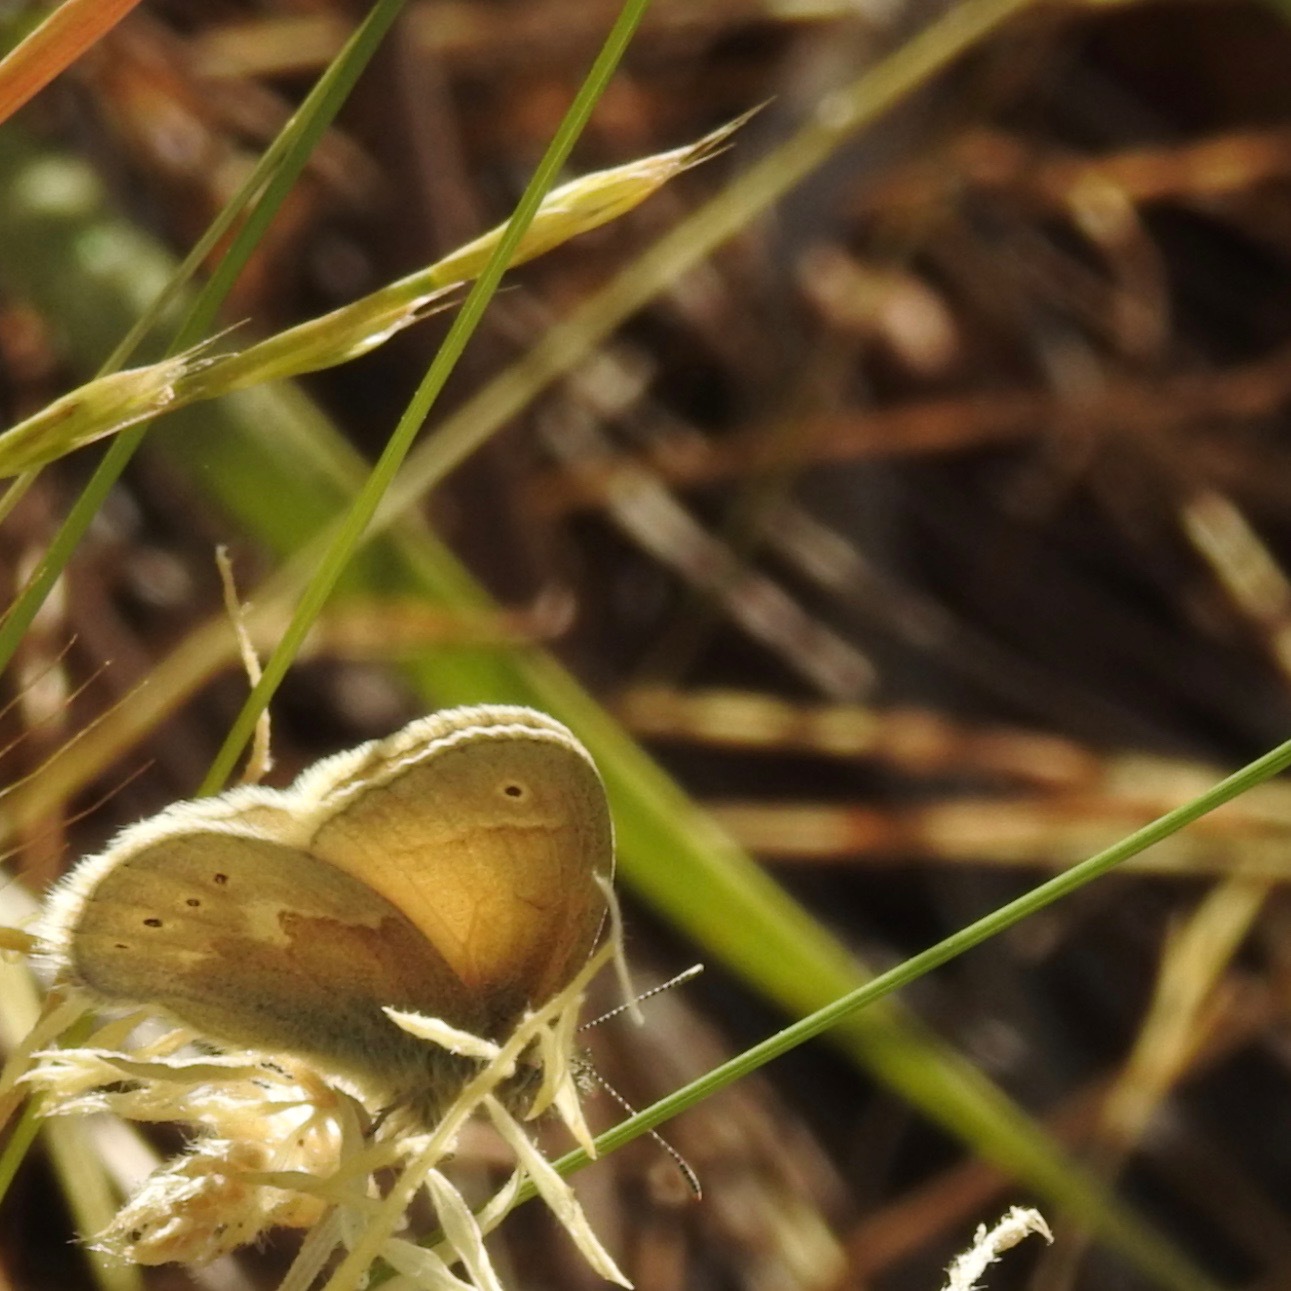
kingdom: Animalia
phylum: Arthropoda
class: Insecta
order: Lepidoptera
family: Nymphalidae
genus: Coenonympha
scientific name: Coenonympha california
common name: Common ringlet
